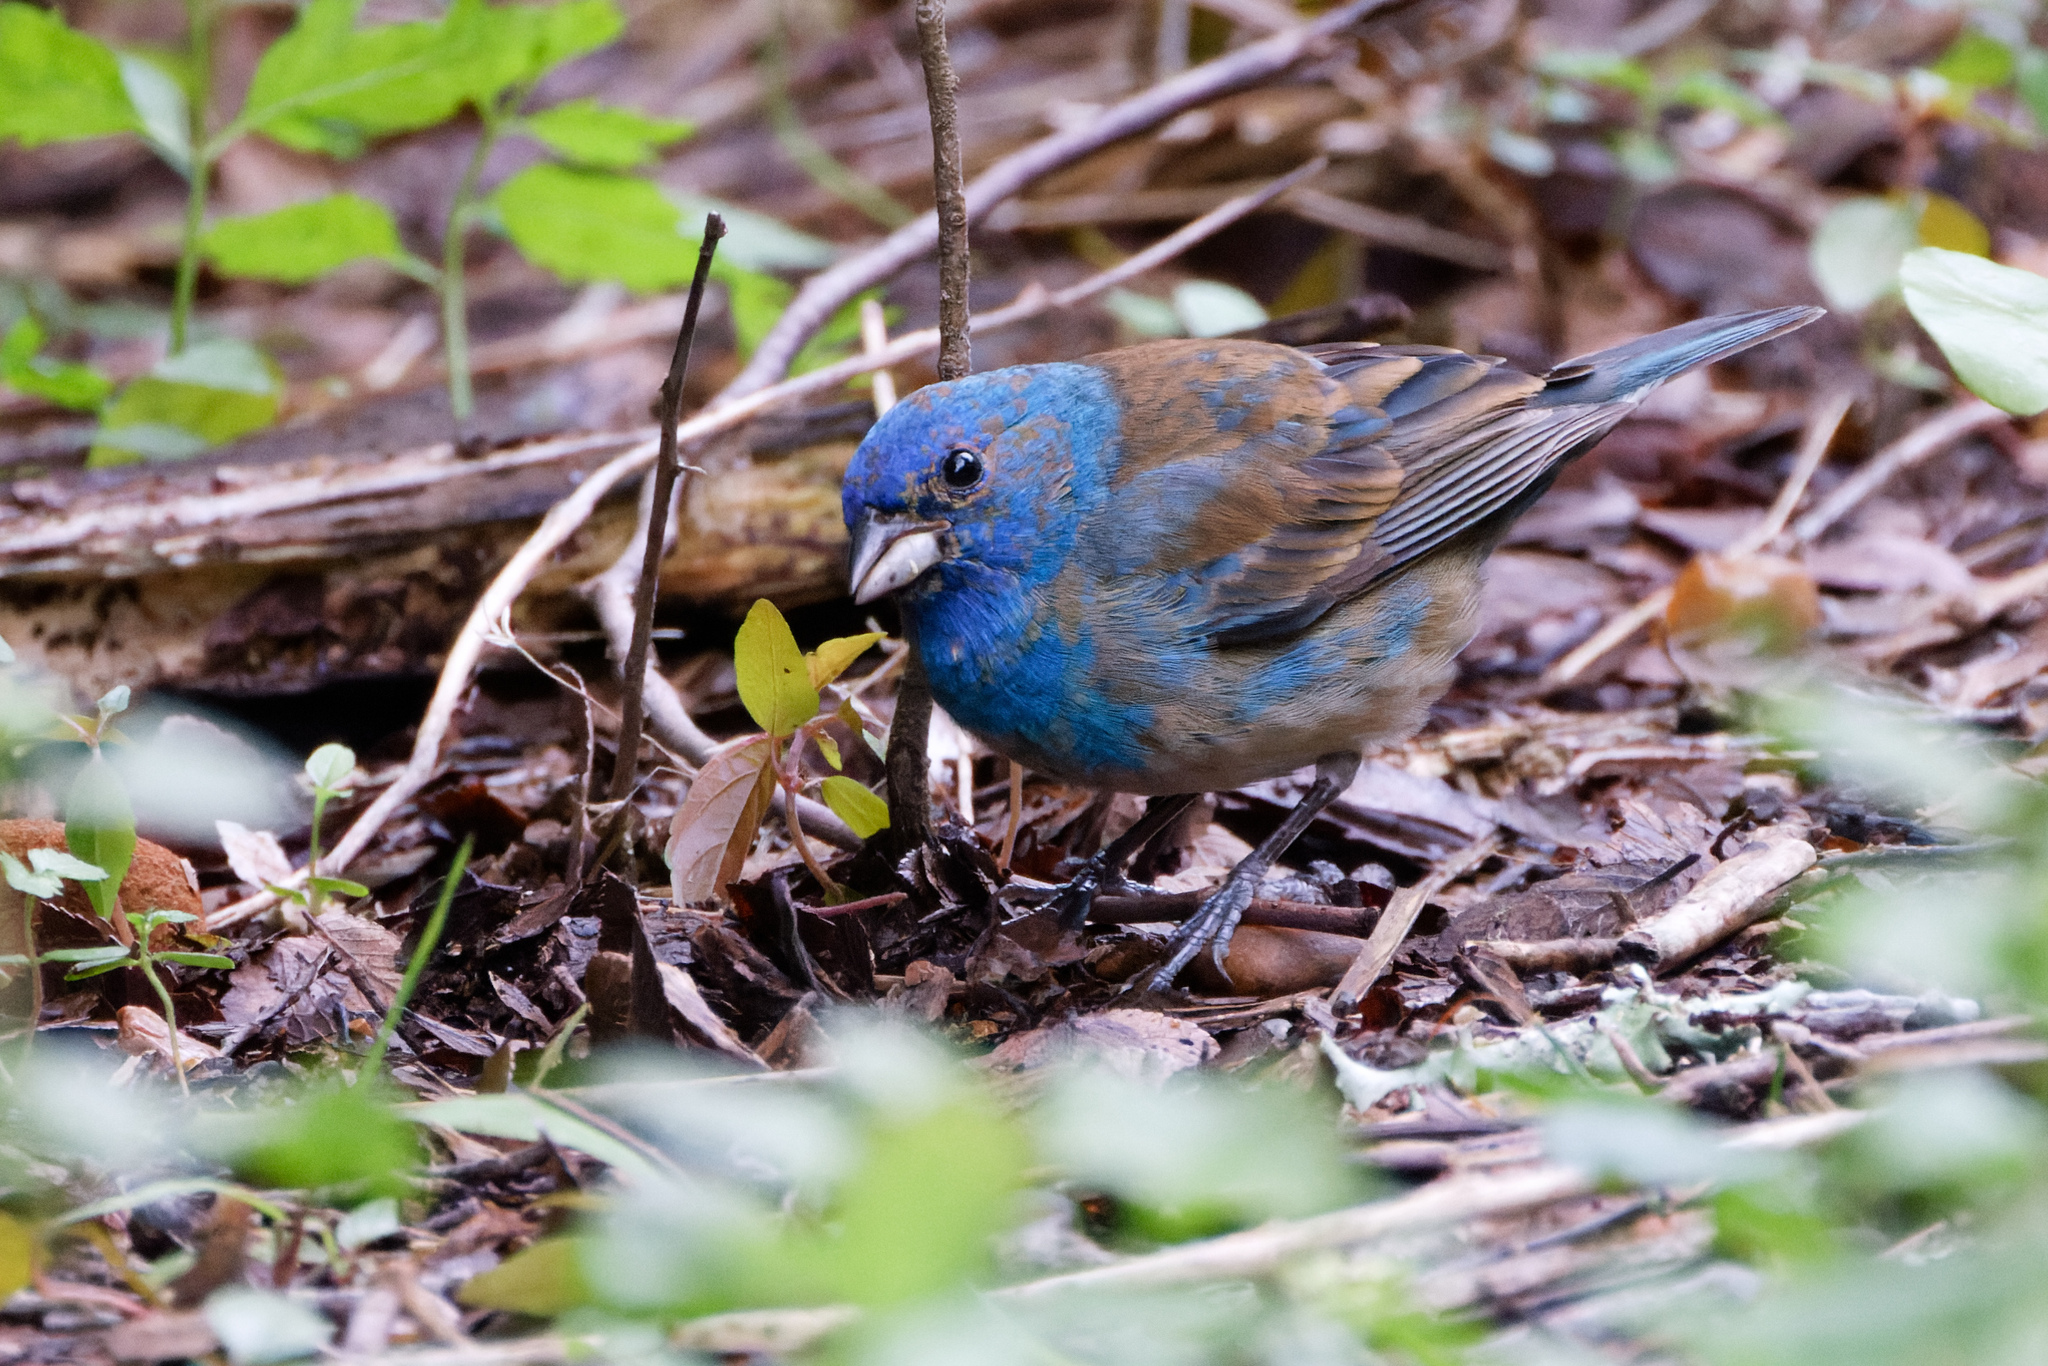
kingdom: Animalia
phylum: Chordata
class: Aves
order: Passeriformes
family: Cardinalidae
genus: Passerina
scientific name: Passerina cyanea
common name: Indigo bunting
